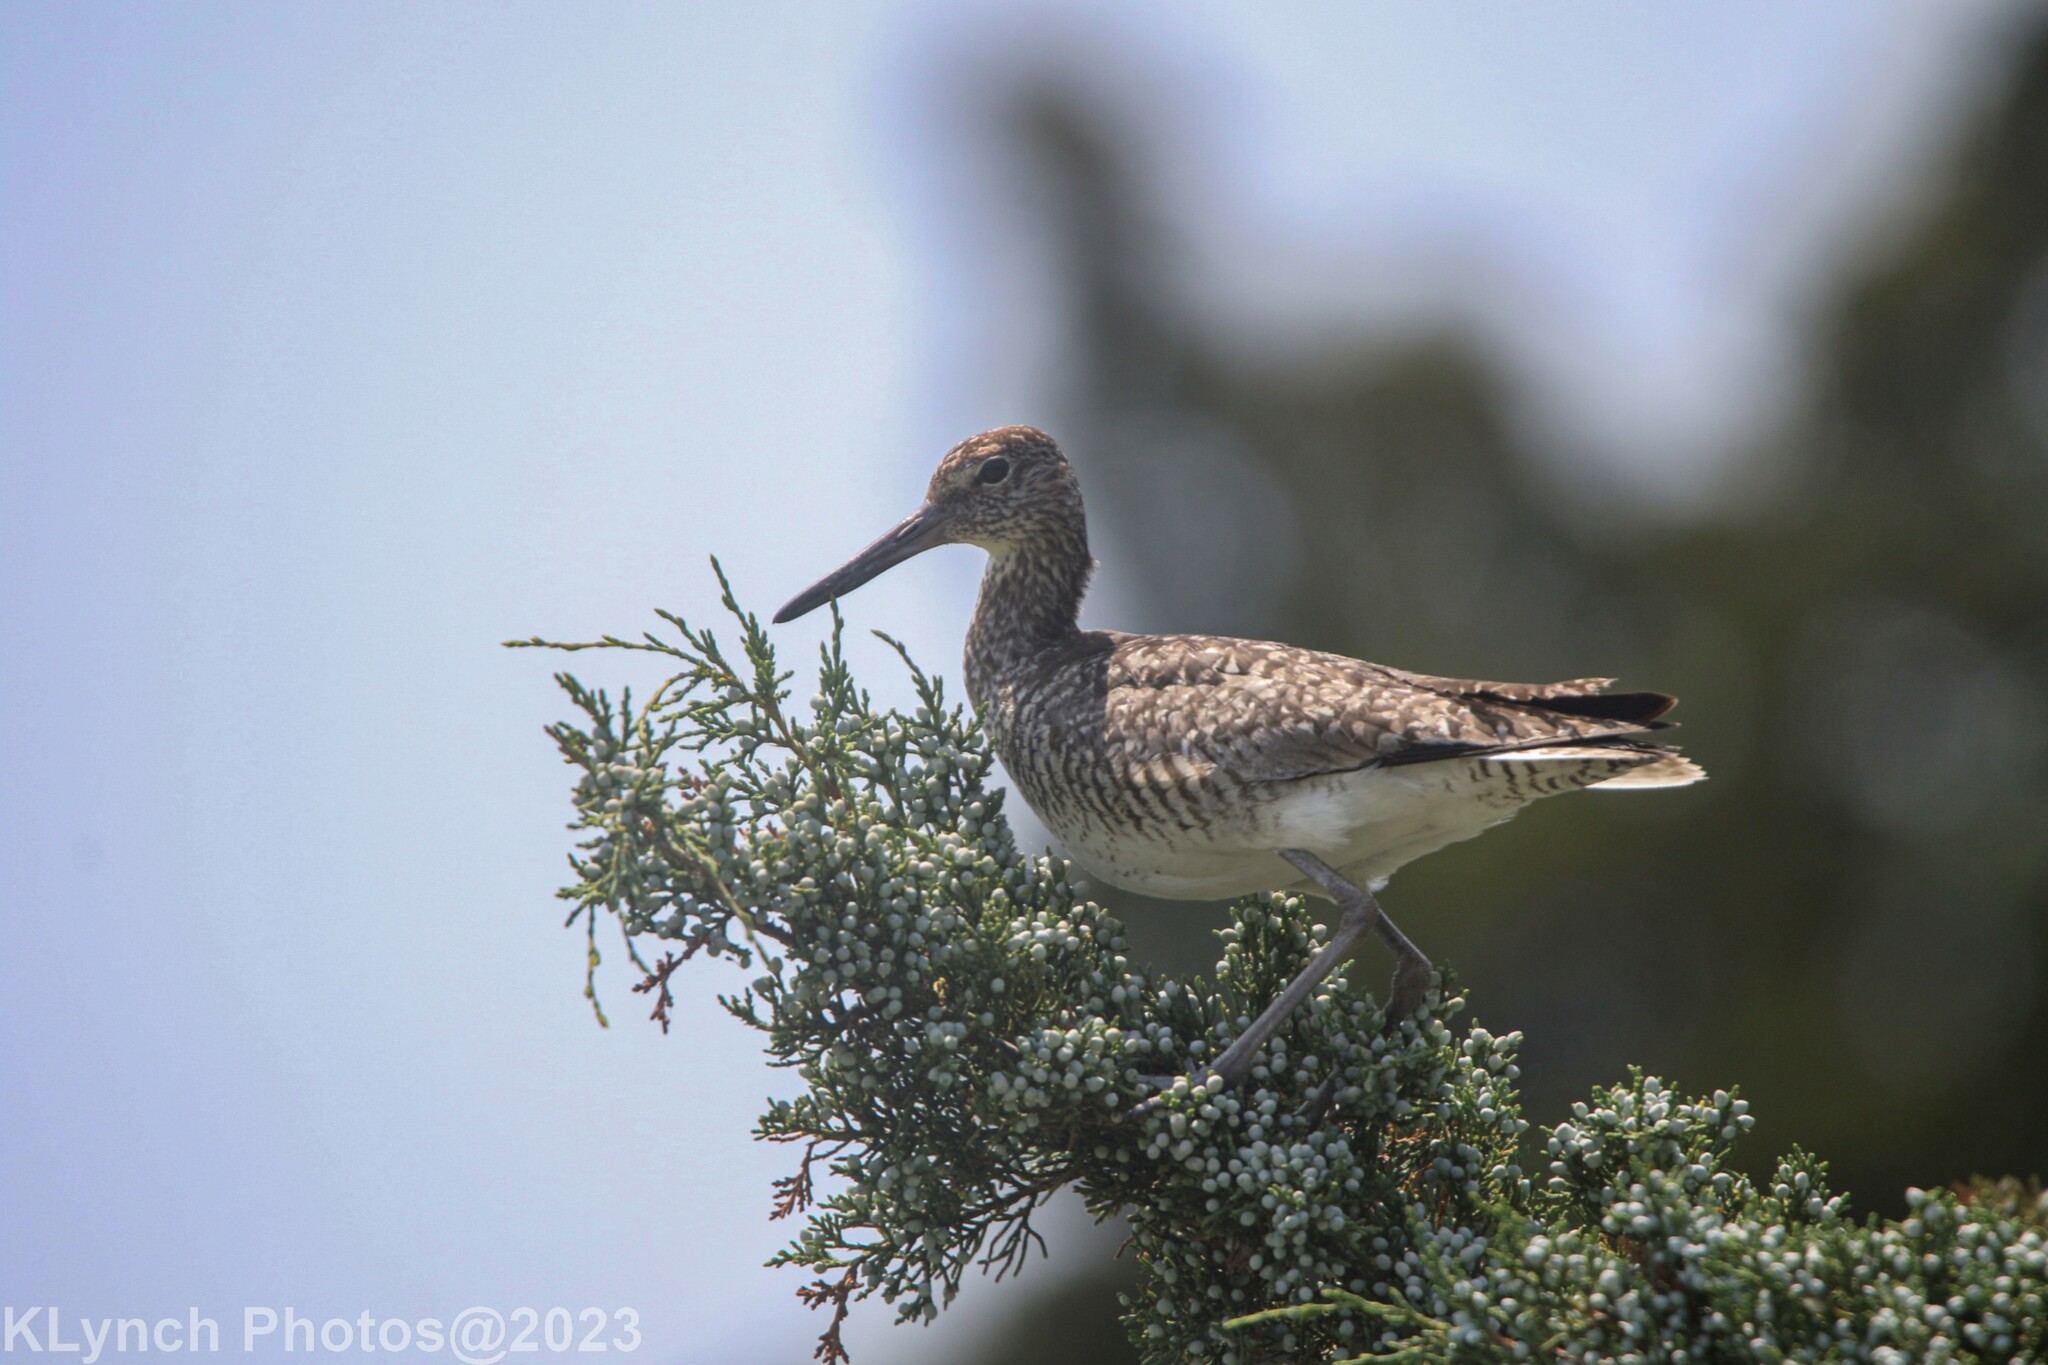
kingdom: Animalia
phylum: Chordata
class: Aves
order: Charadriiformes
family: Scolopacidae
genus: Tringa
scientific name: Tringa semipalmata
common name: Willet
